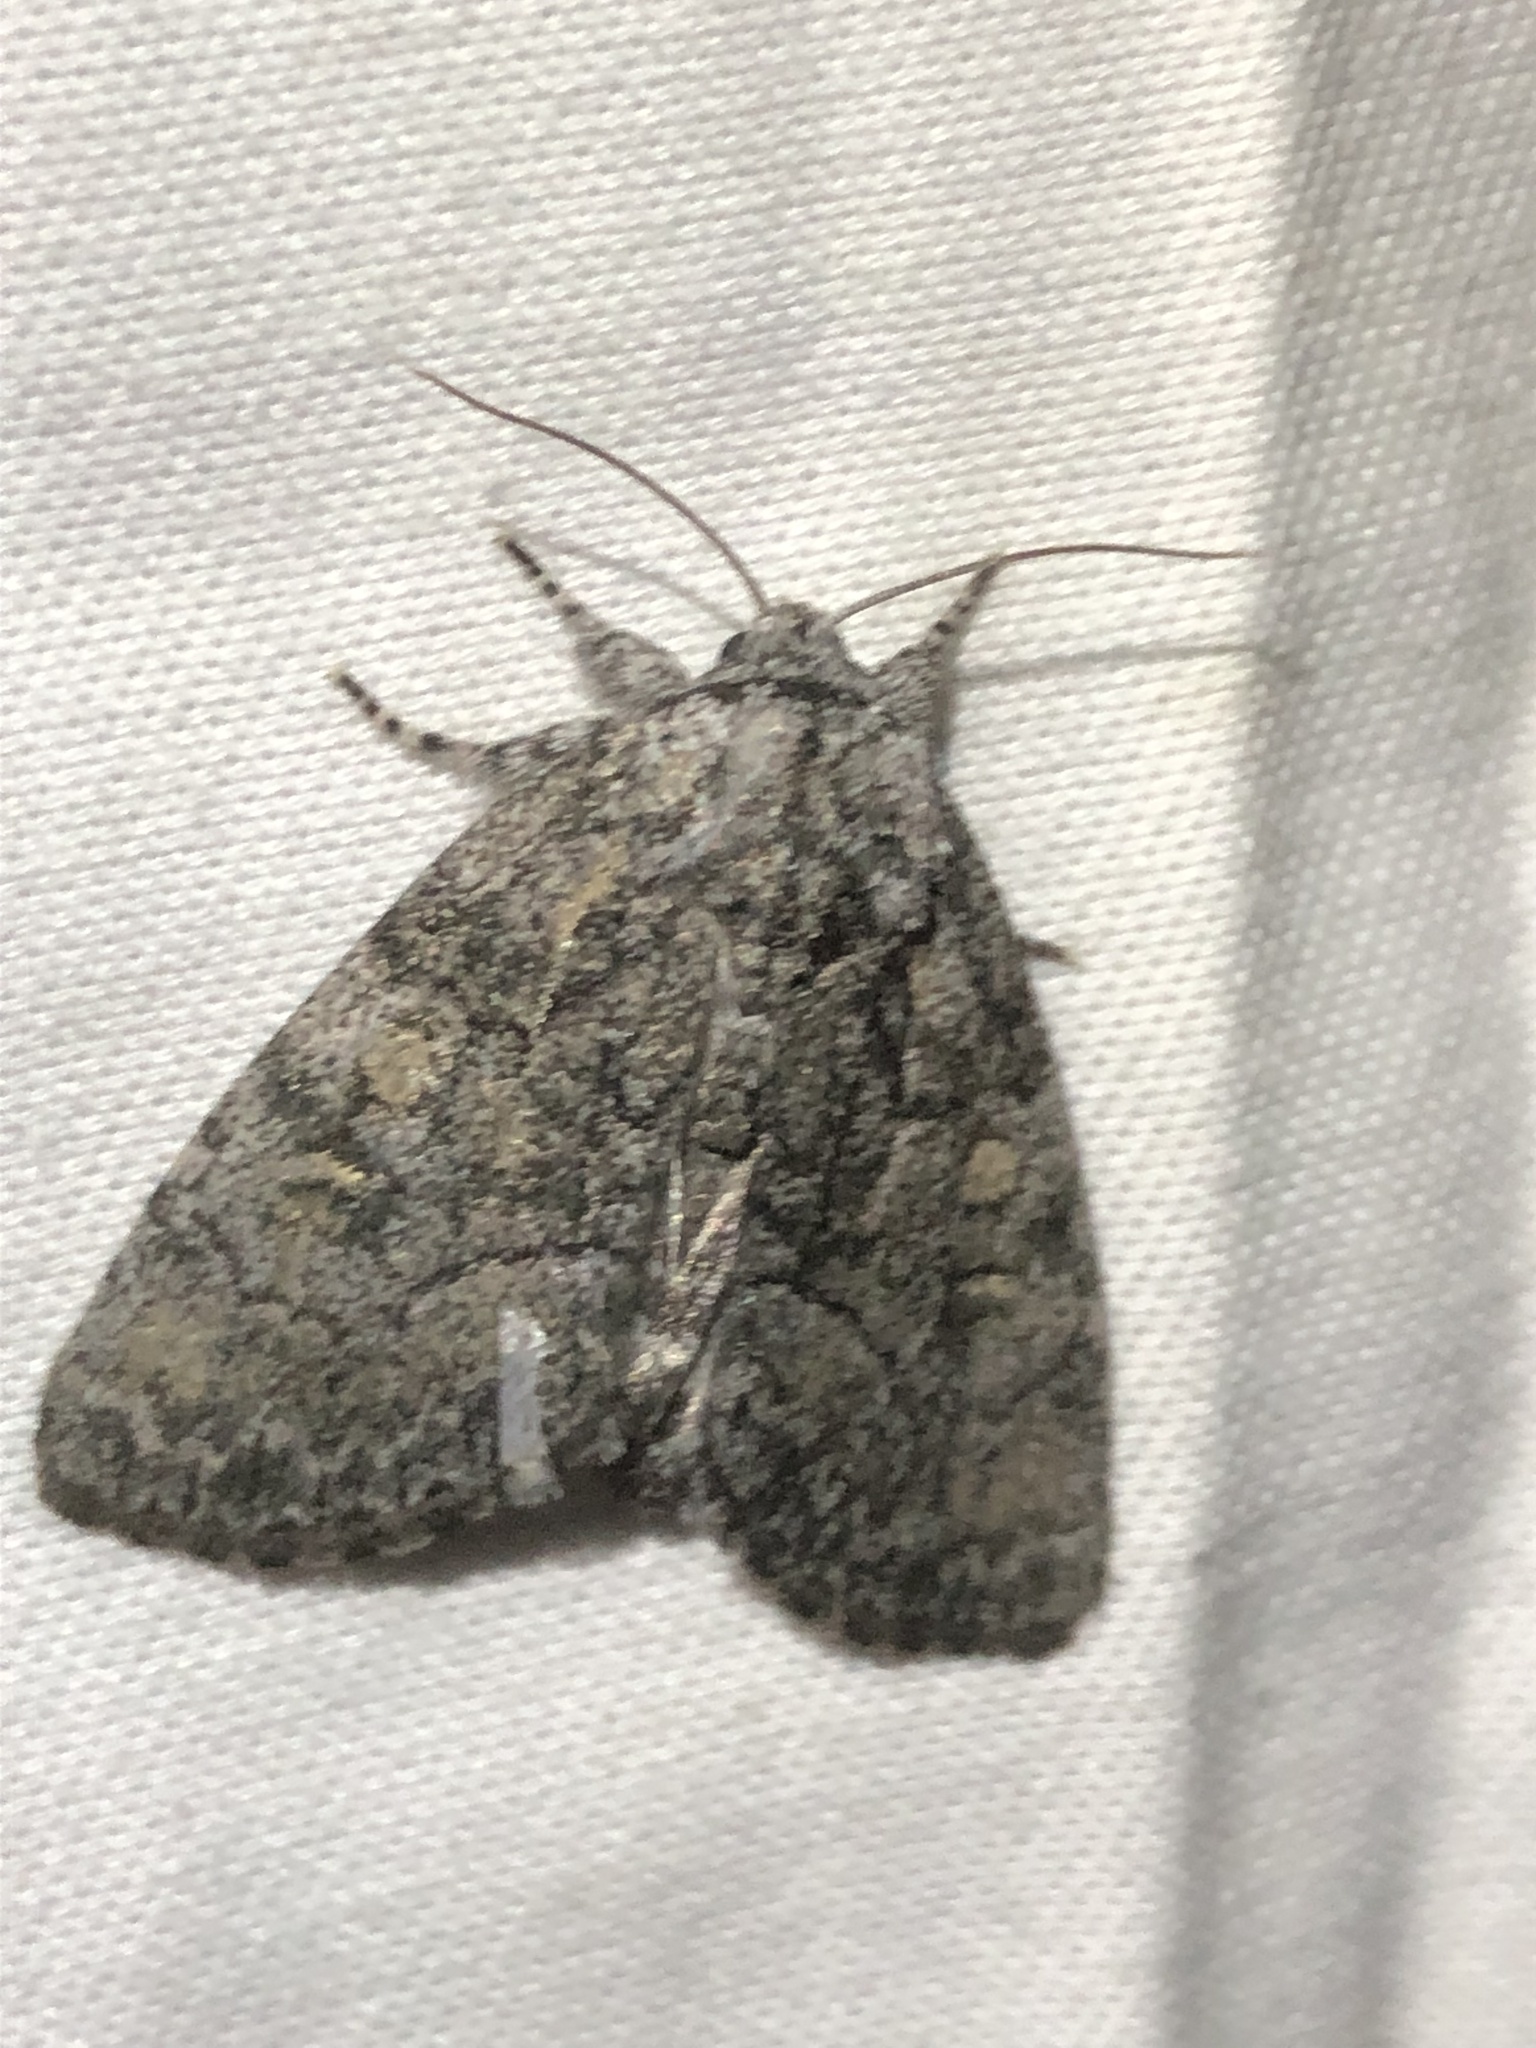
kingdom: Animalia
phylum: Arthropoda
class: Insecta
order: Lepidoptera
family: Noctuidae
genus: Raphia
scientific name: Raphia frater
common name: Brother
